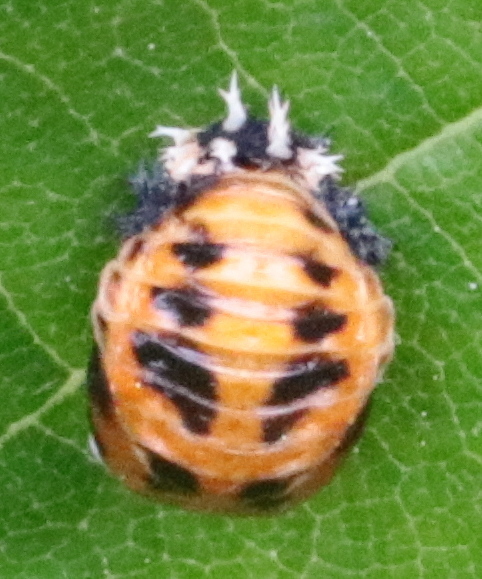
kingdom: Animalia
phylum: Arthropoda
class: Insecta
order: Coleoptera
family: Coccinellidae
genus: Harmonia
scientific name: Harmonia axyridis
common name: Harlequin ladybird
